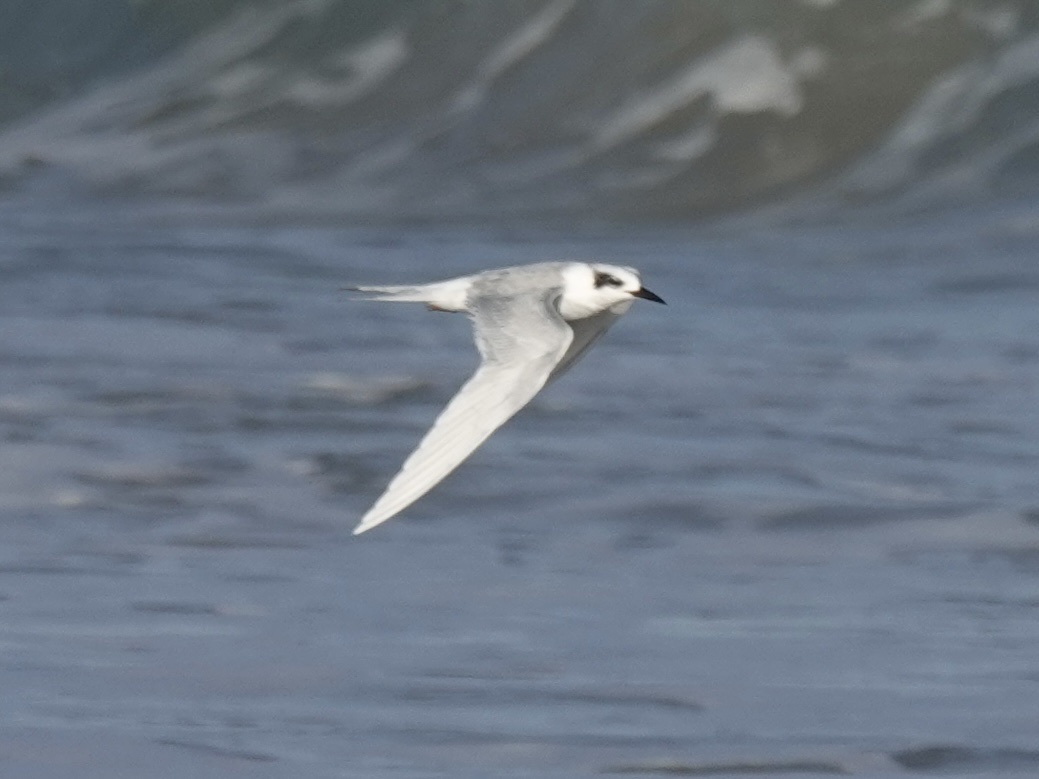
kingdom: Animalia
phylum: Chordata
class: Aves
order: Charadriiformes
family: Laridae
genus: Sterna
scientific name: Sterna forsteri
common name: Forster's tern
